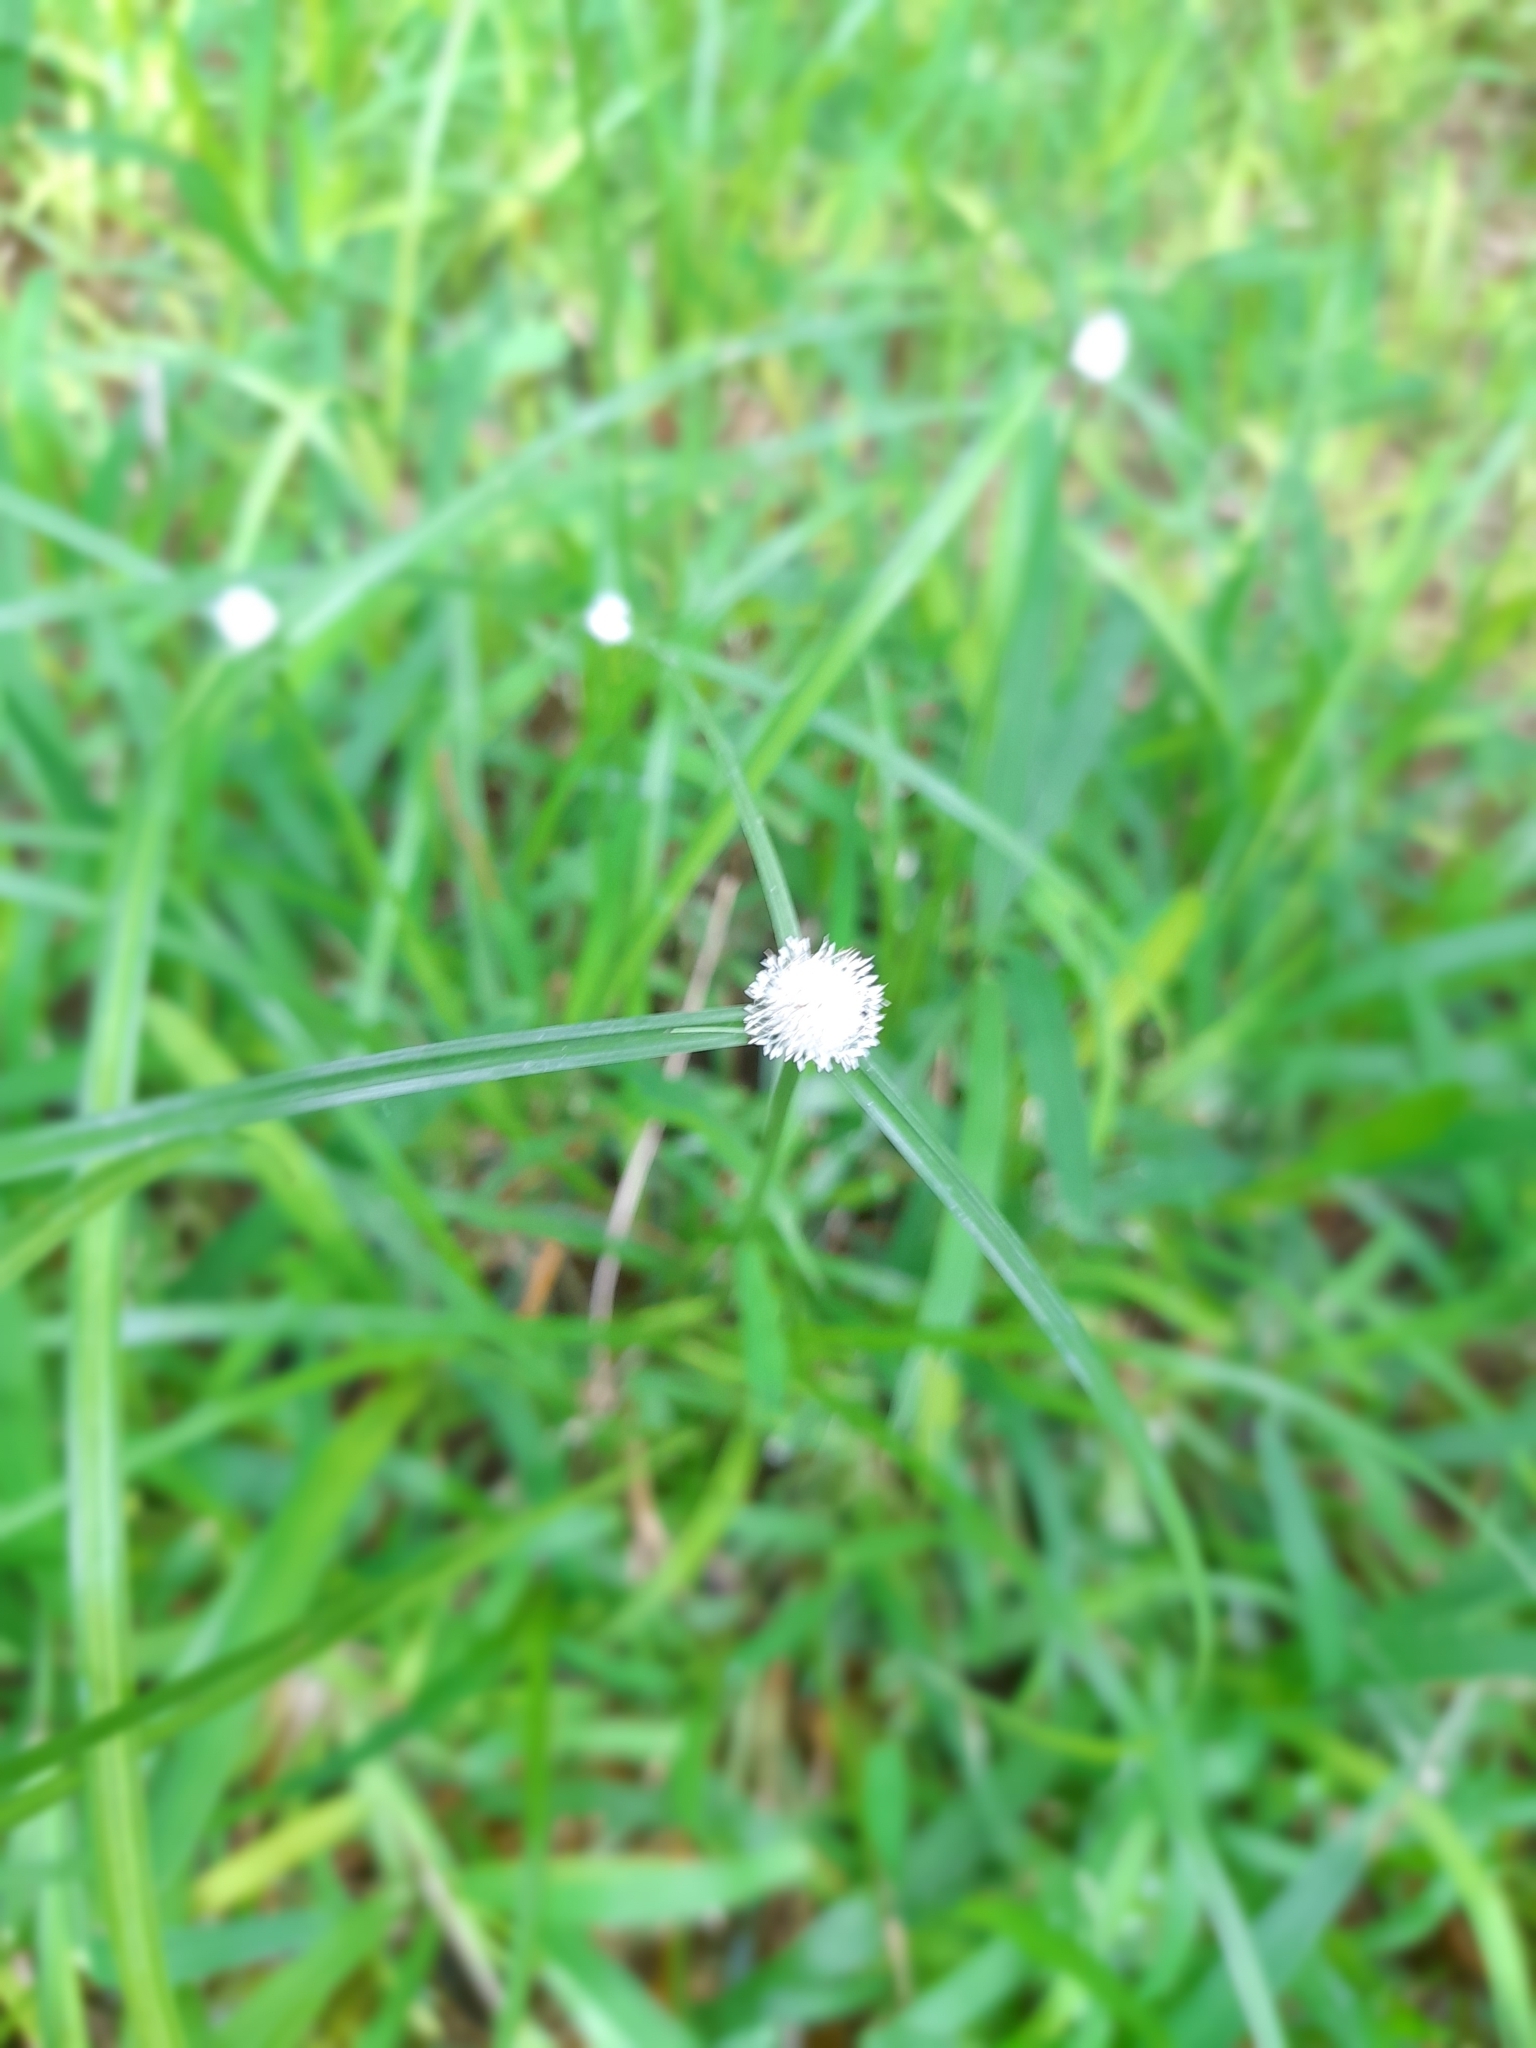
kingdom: Plantae
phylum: Tracheophyta
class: Liliopsida
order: Poales
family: Cyperaceae
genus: Cyperus
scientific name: Cyperus mindorensis
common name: Flatsedge
